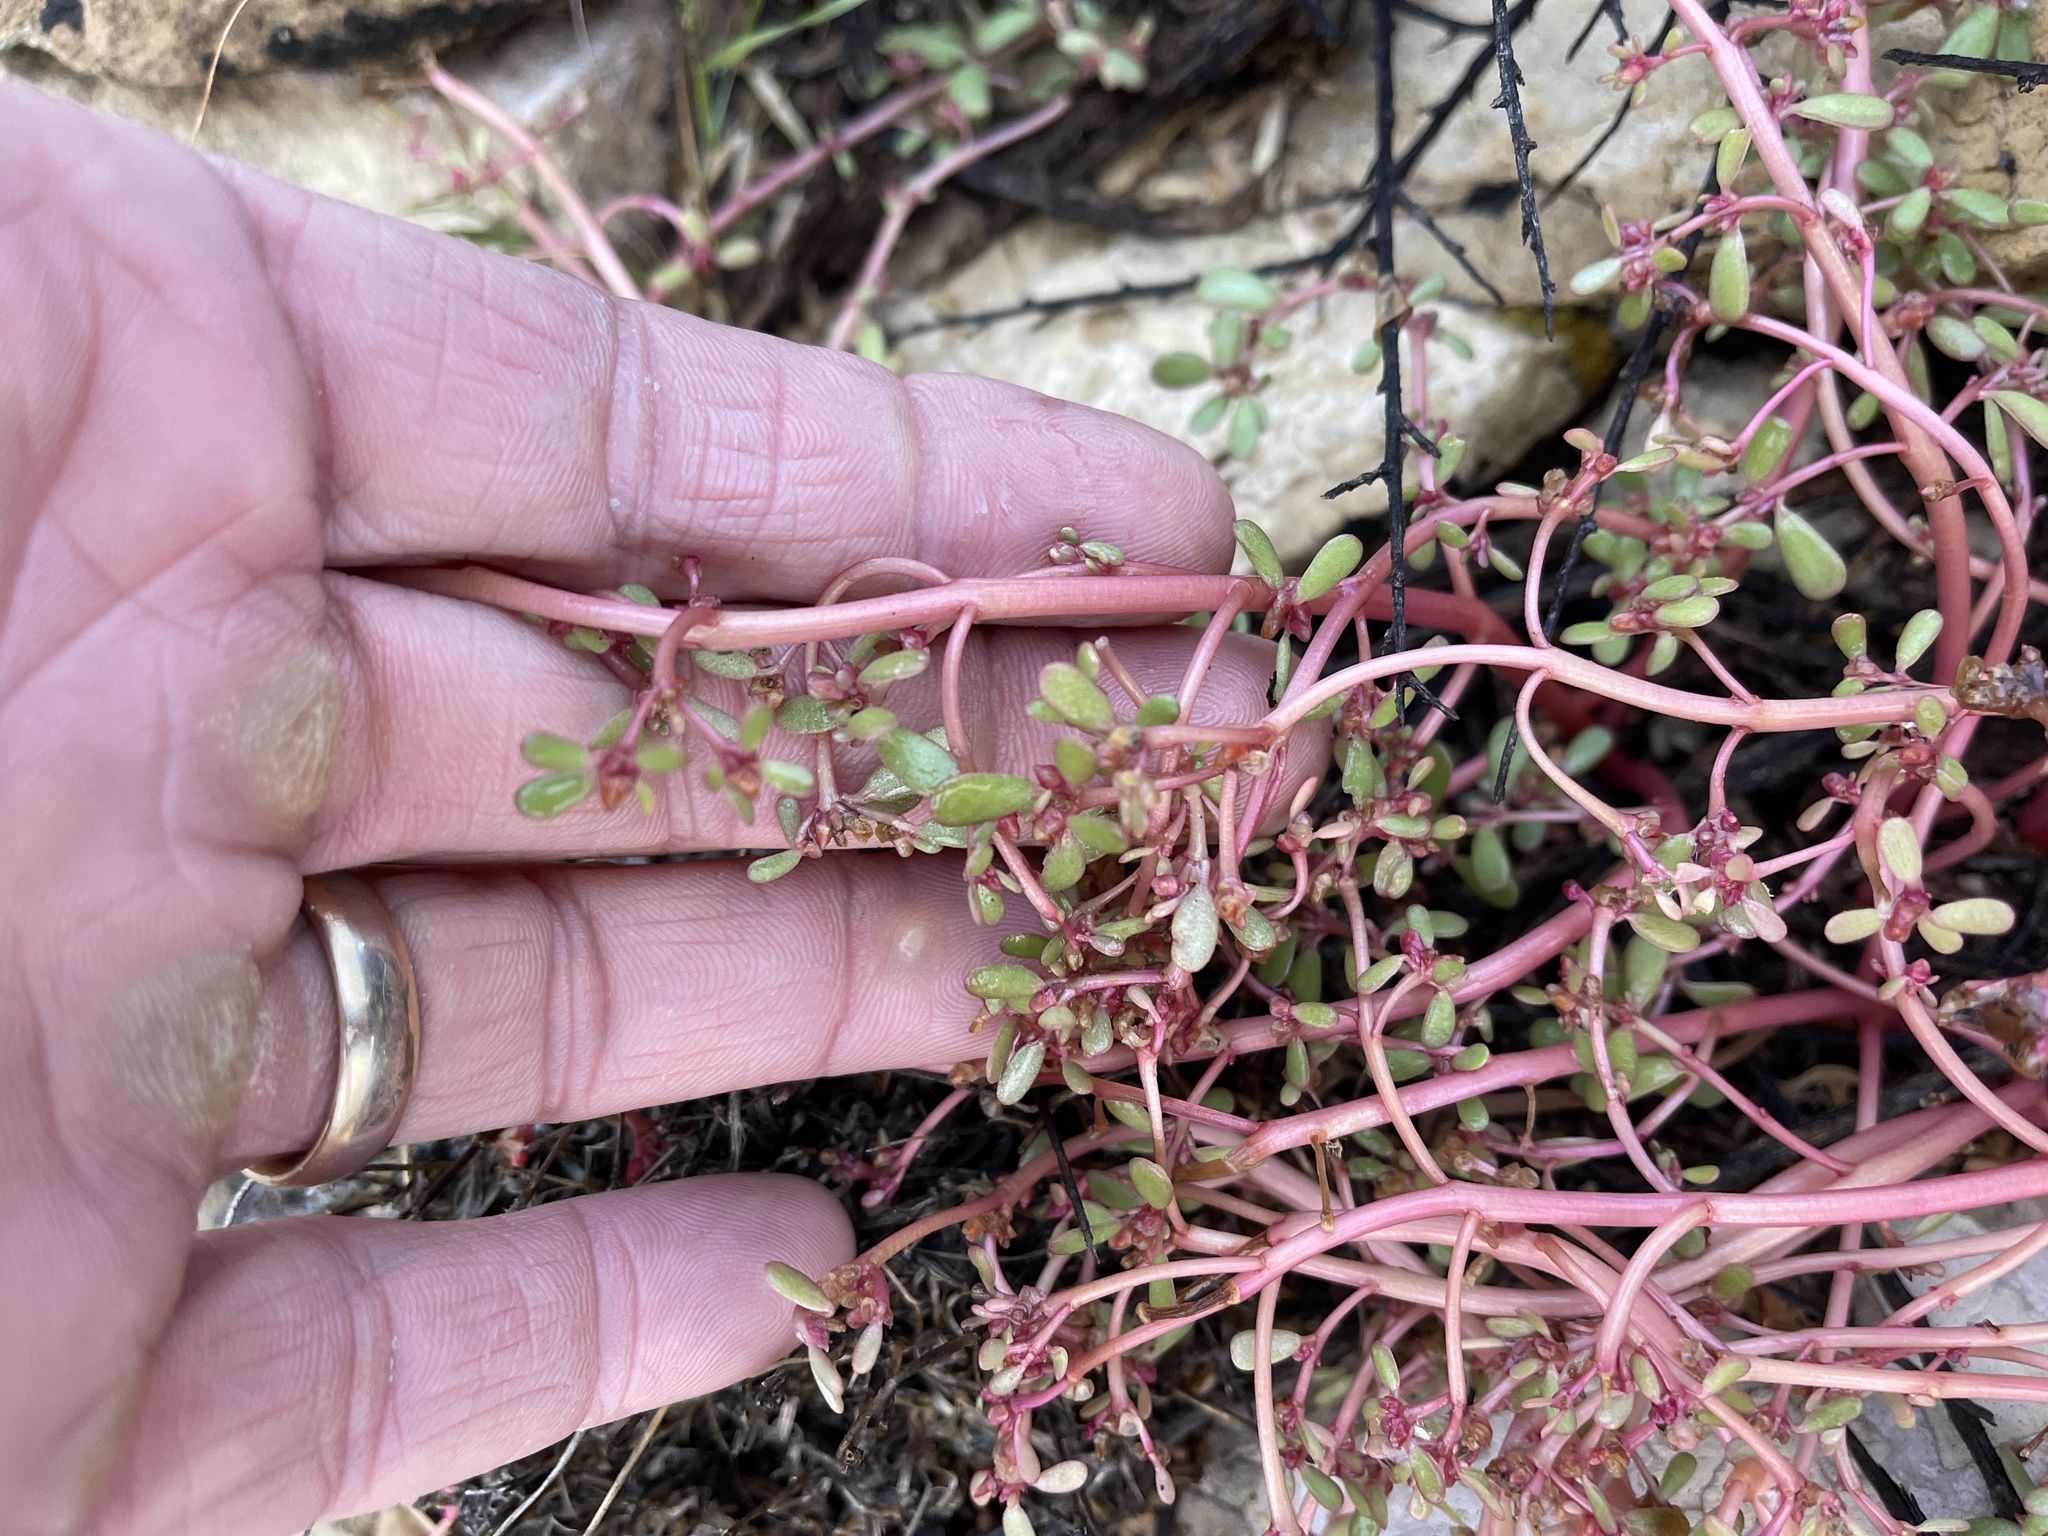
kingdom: Plantae
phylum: Tracheophyta
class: Magnoliopsida
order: Caryophyllales
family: Portulacaceae
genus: Portulaca
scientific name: Portulaca oleracea
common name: Common purslane
